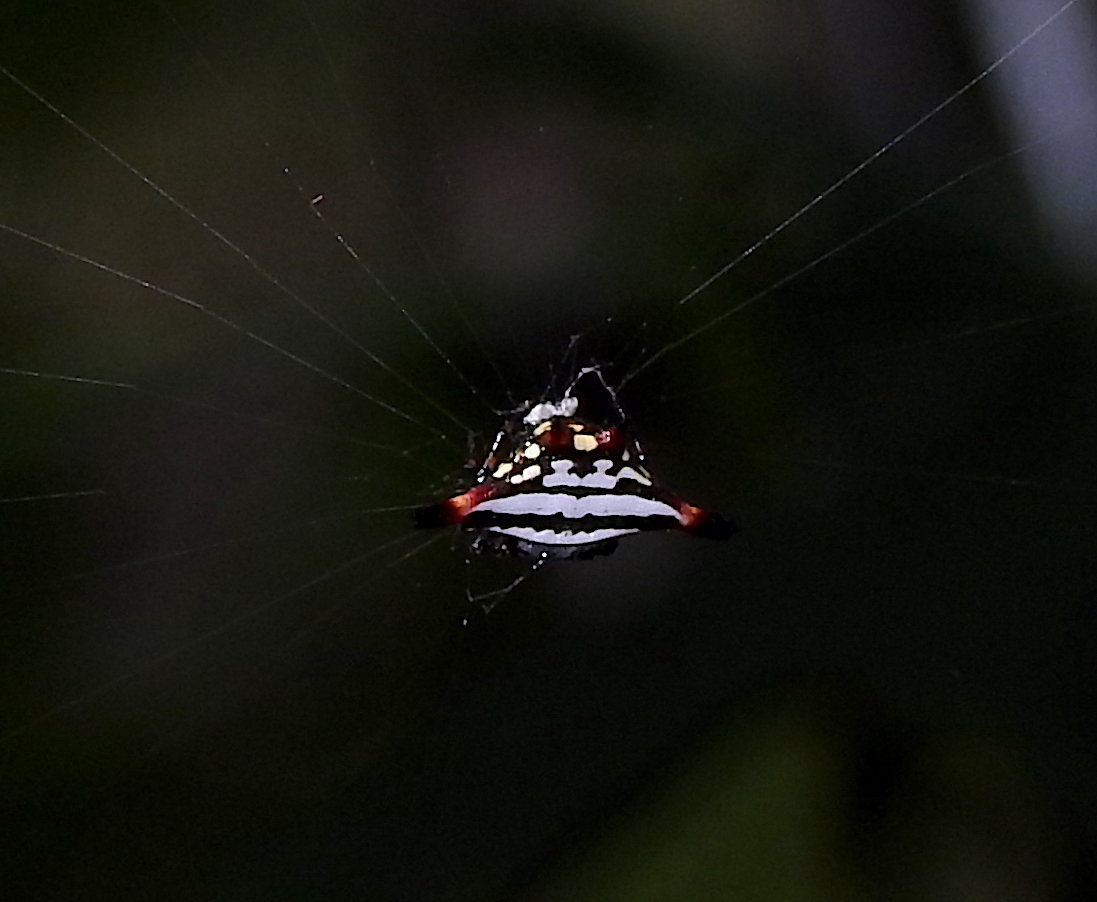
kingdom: Animalia
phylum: Arthropoda
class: Arachnida
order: Araneae
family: Araneidae
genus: Gasteracantha
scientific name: Gasteracantha geminata
